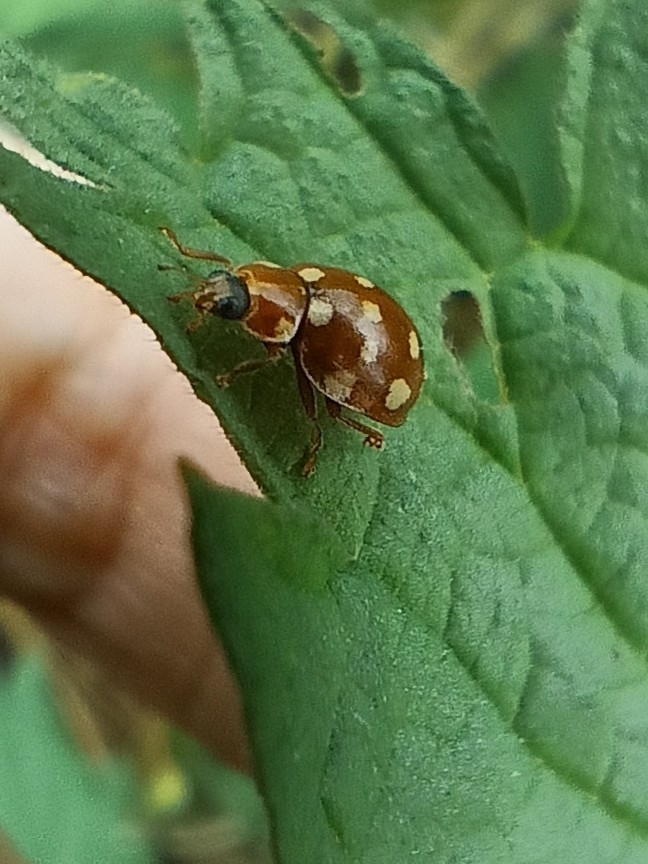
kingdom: Animalia
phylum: Arthropoda
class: Insecta
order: Coleoptera
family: Coccinellidae
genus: Calvia
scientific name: Calvia quatuordecimguttata
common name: Cream-spot ladybird
